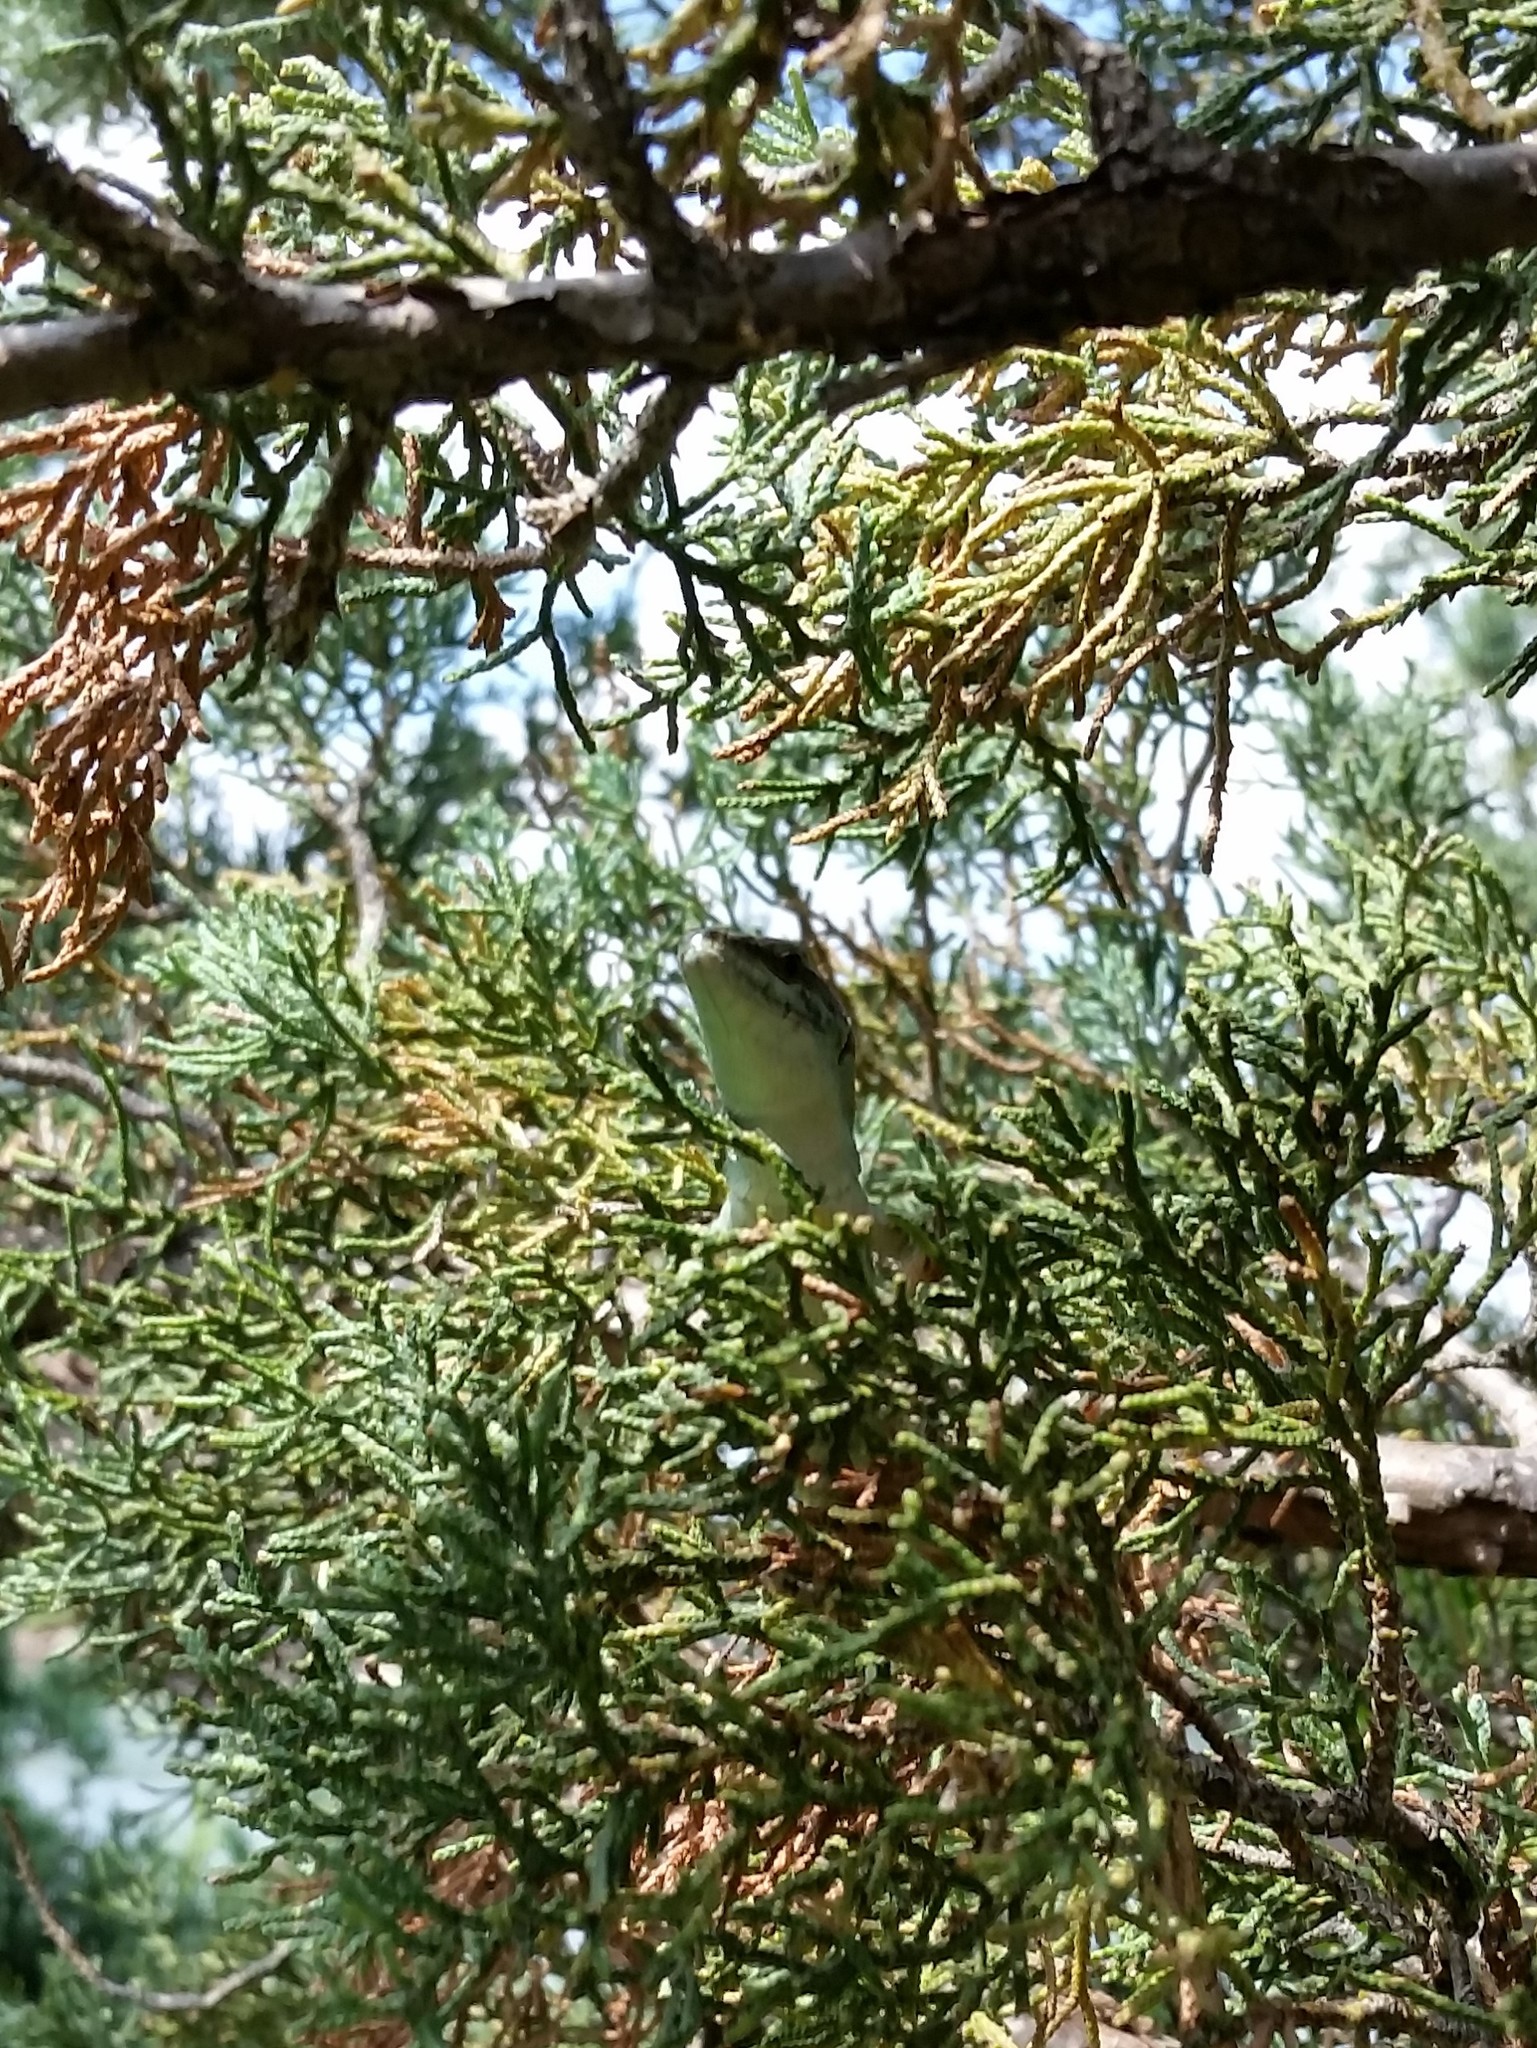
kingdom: Animalia
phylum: Chordata
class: Squamata
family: Lacertidae
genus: Podarcis
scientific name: Podarcis siculus
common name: Italian wall lizard
